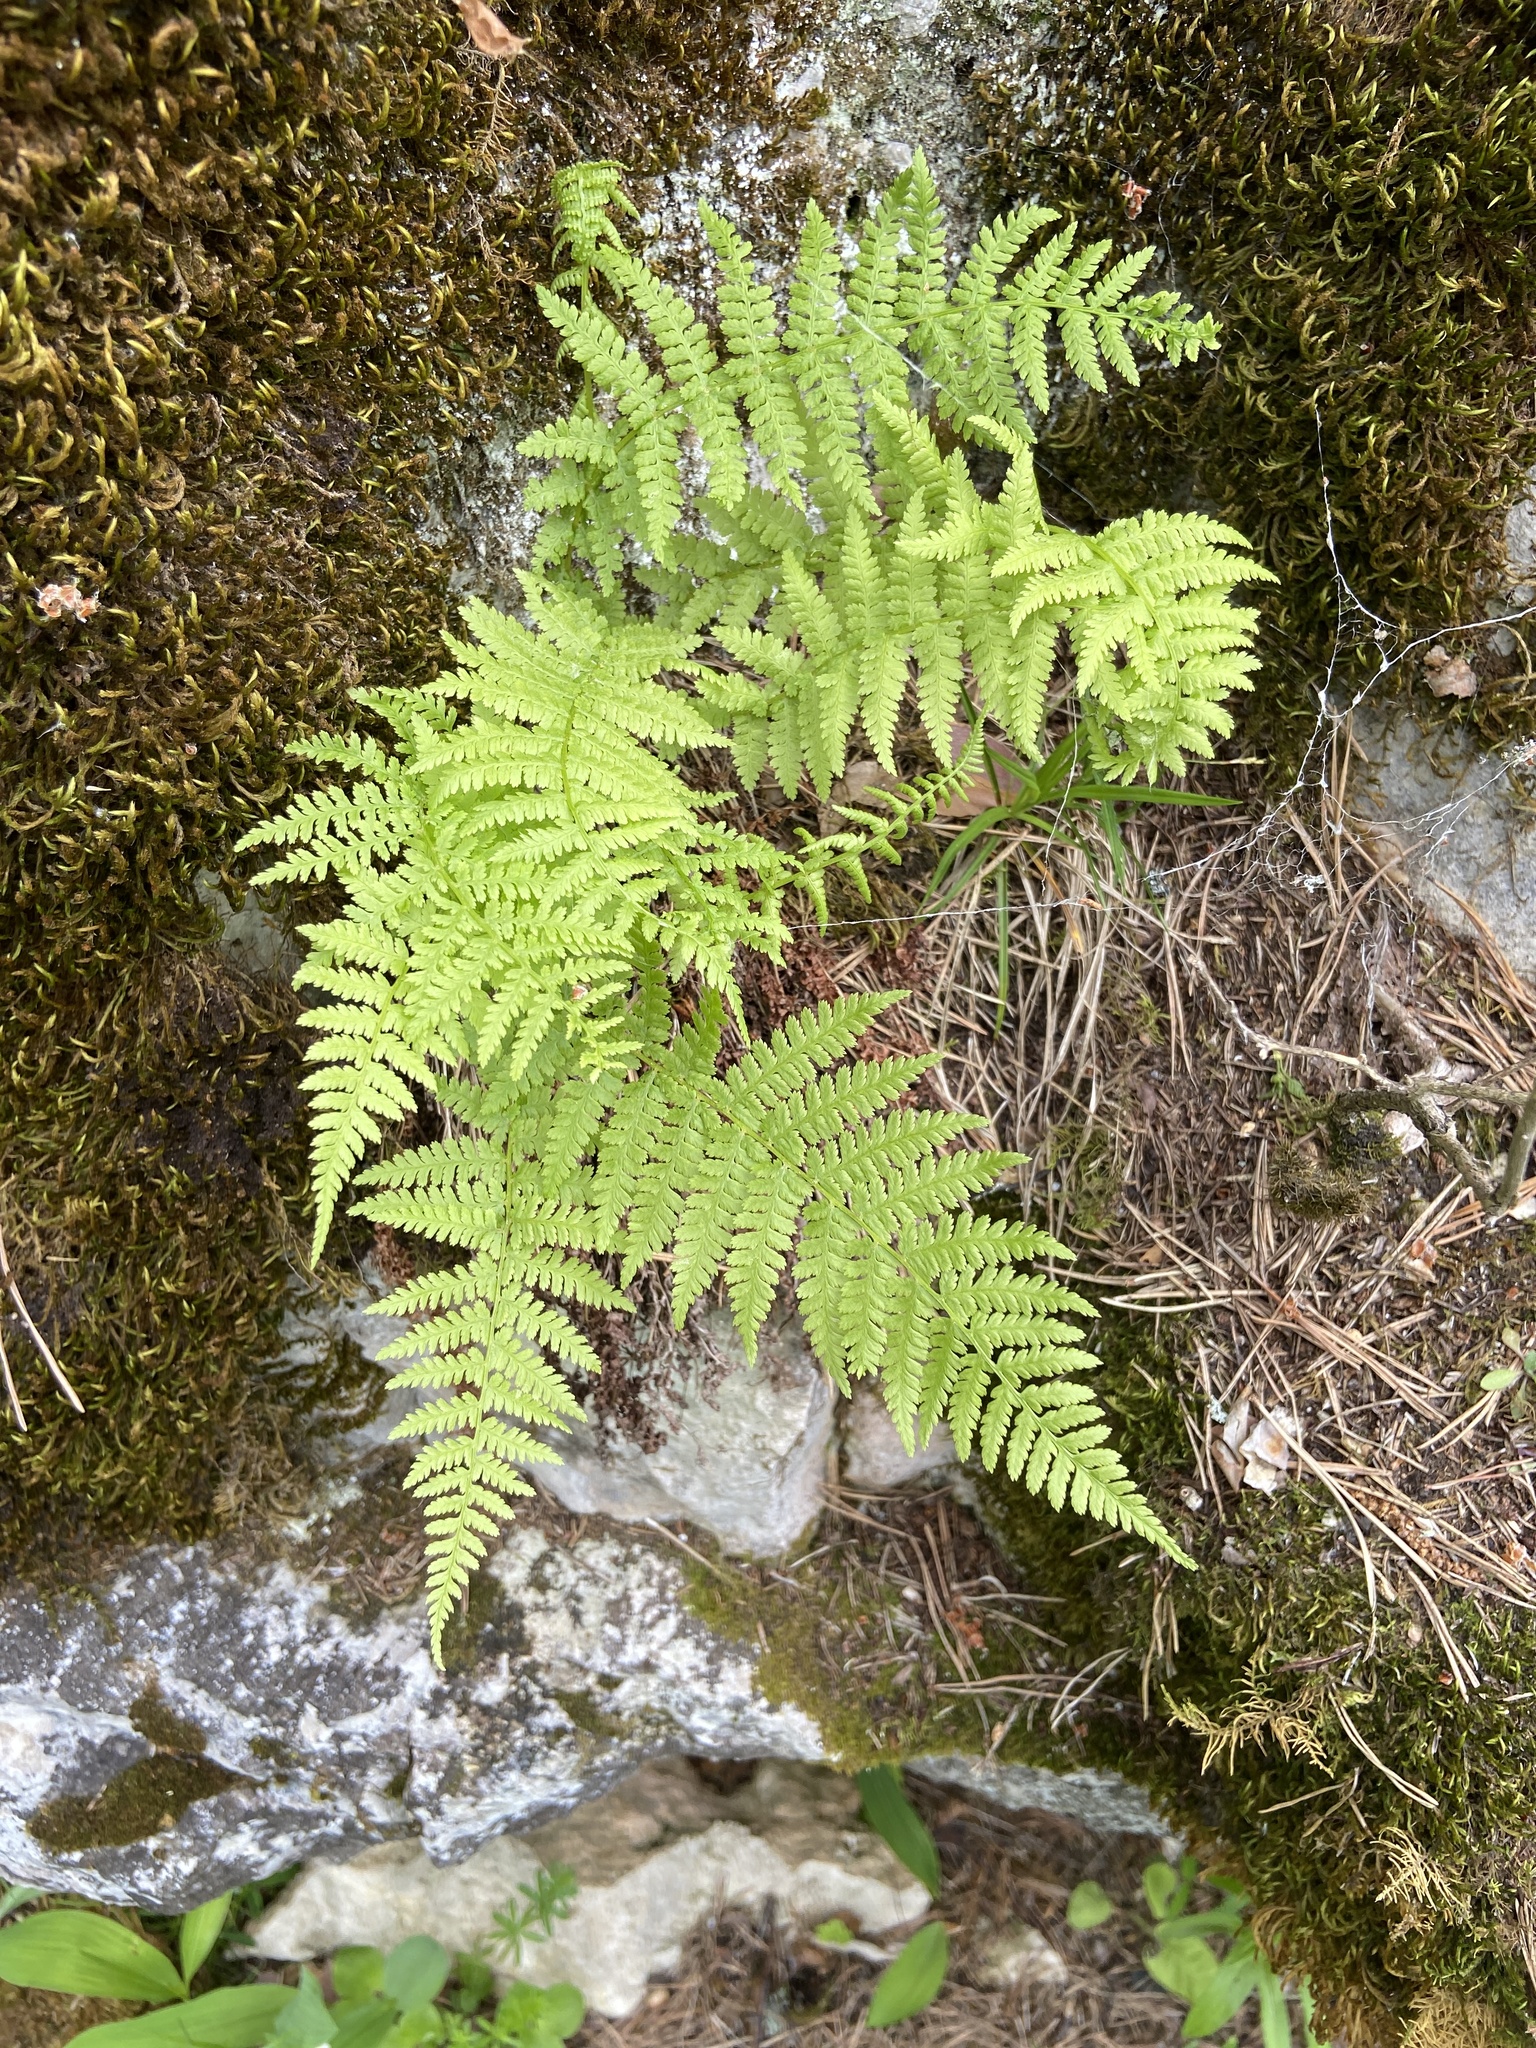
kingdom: Plantae
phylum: Tracheophyta
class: Polypodiopsida
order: Polypodiales
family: Athyriaceae
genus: Athyrium
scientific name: Athyrium filix-femina
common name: Lady fern
